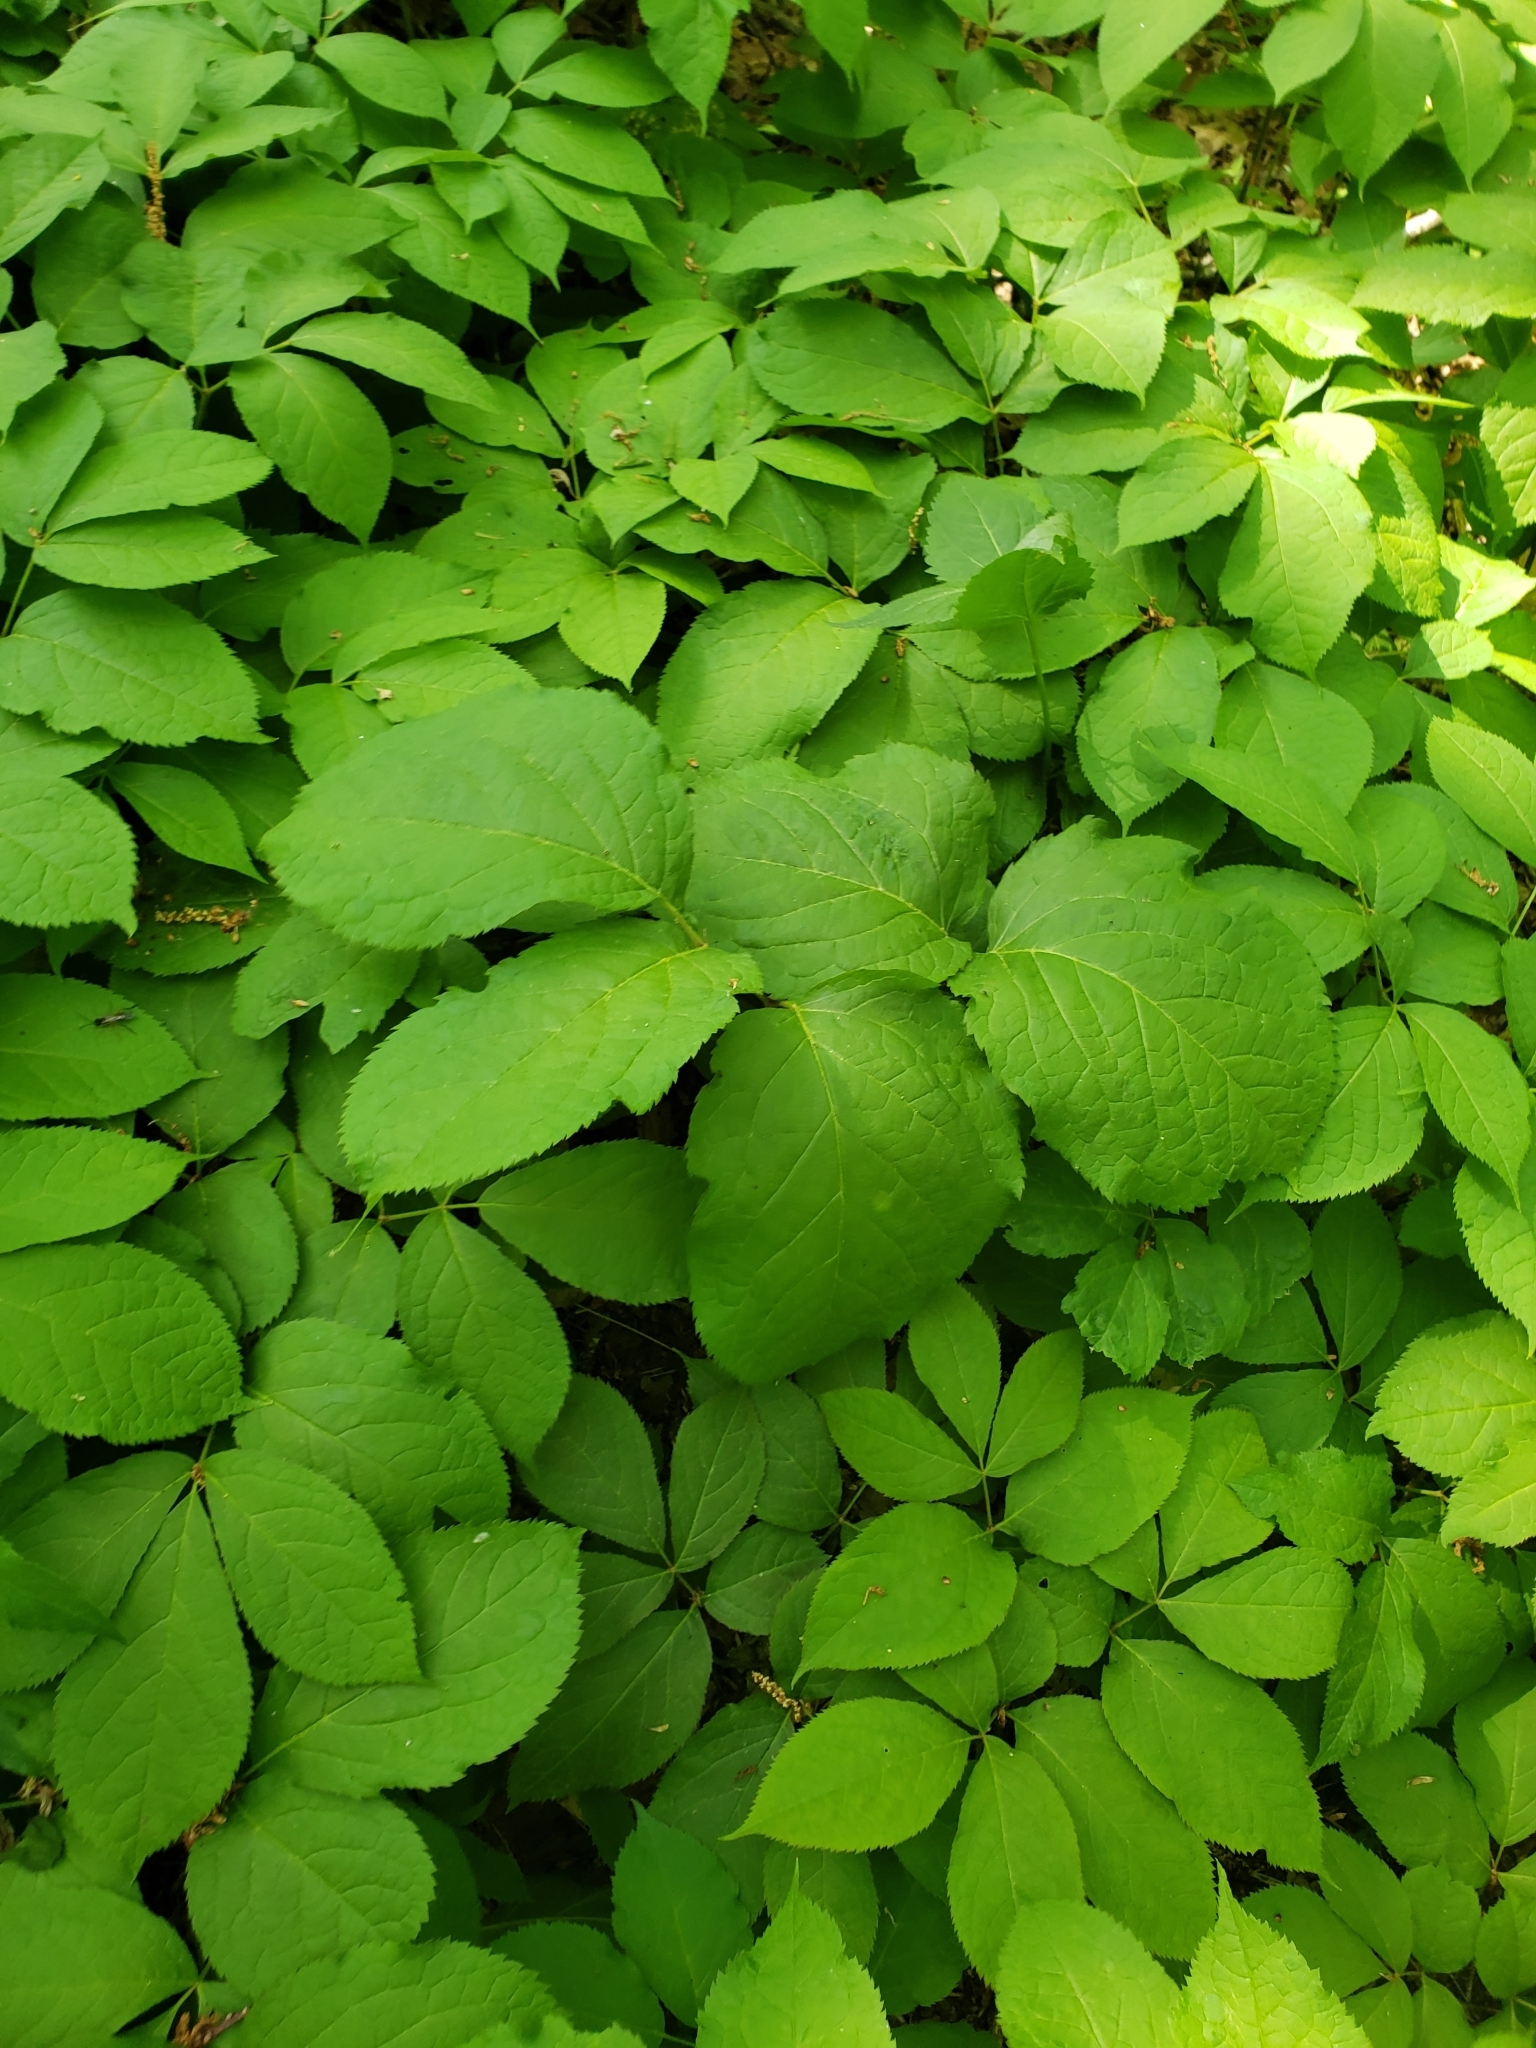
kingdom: Plantae
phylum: Tracheophyta
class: Magnoliopsida
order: Apiales
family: Araliaceae
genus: Aralia
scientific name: Aralia nudicaulis
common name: Wild sarsaparilla
